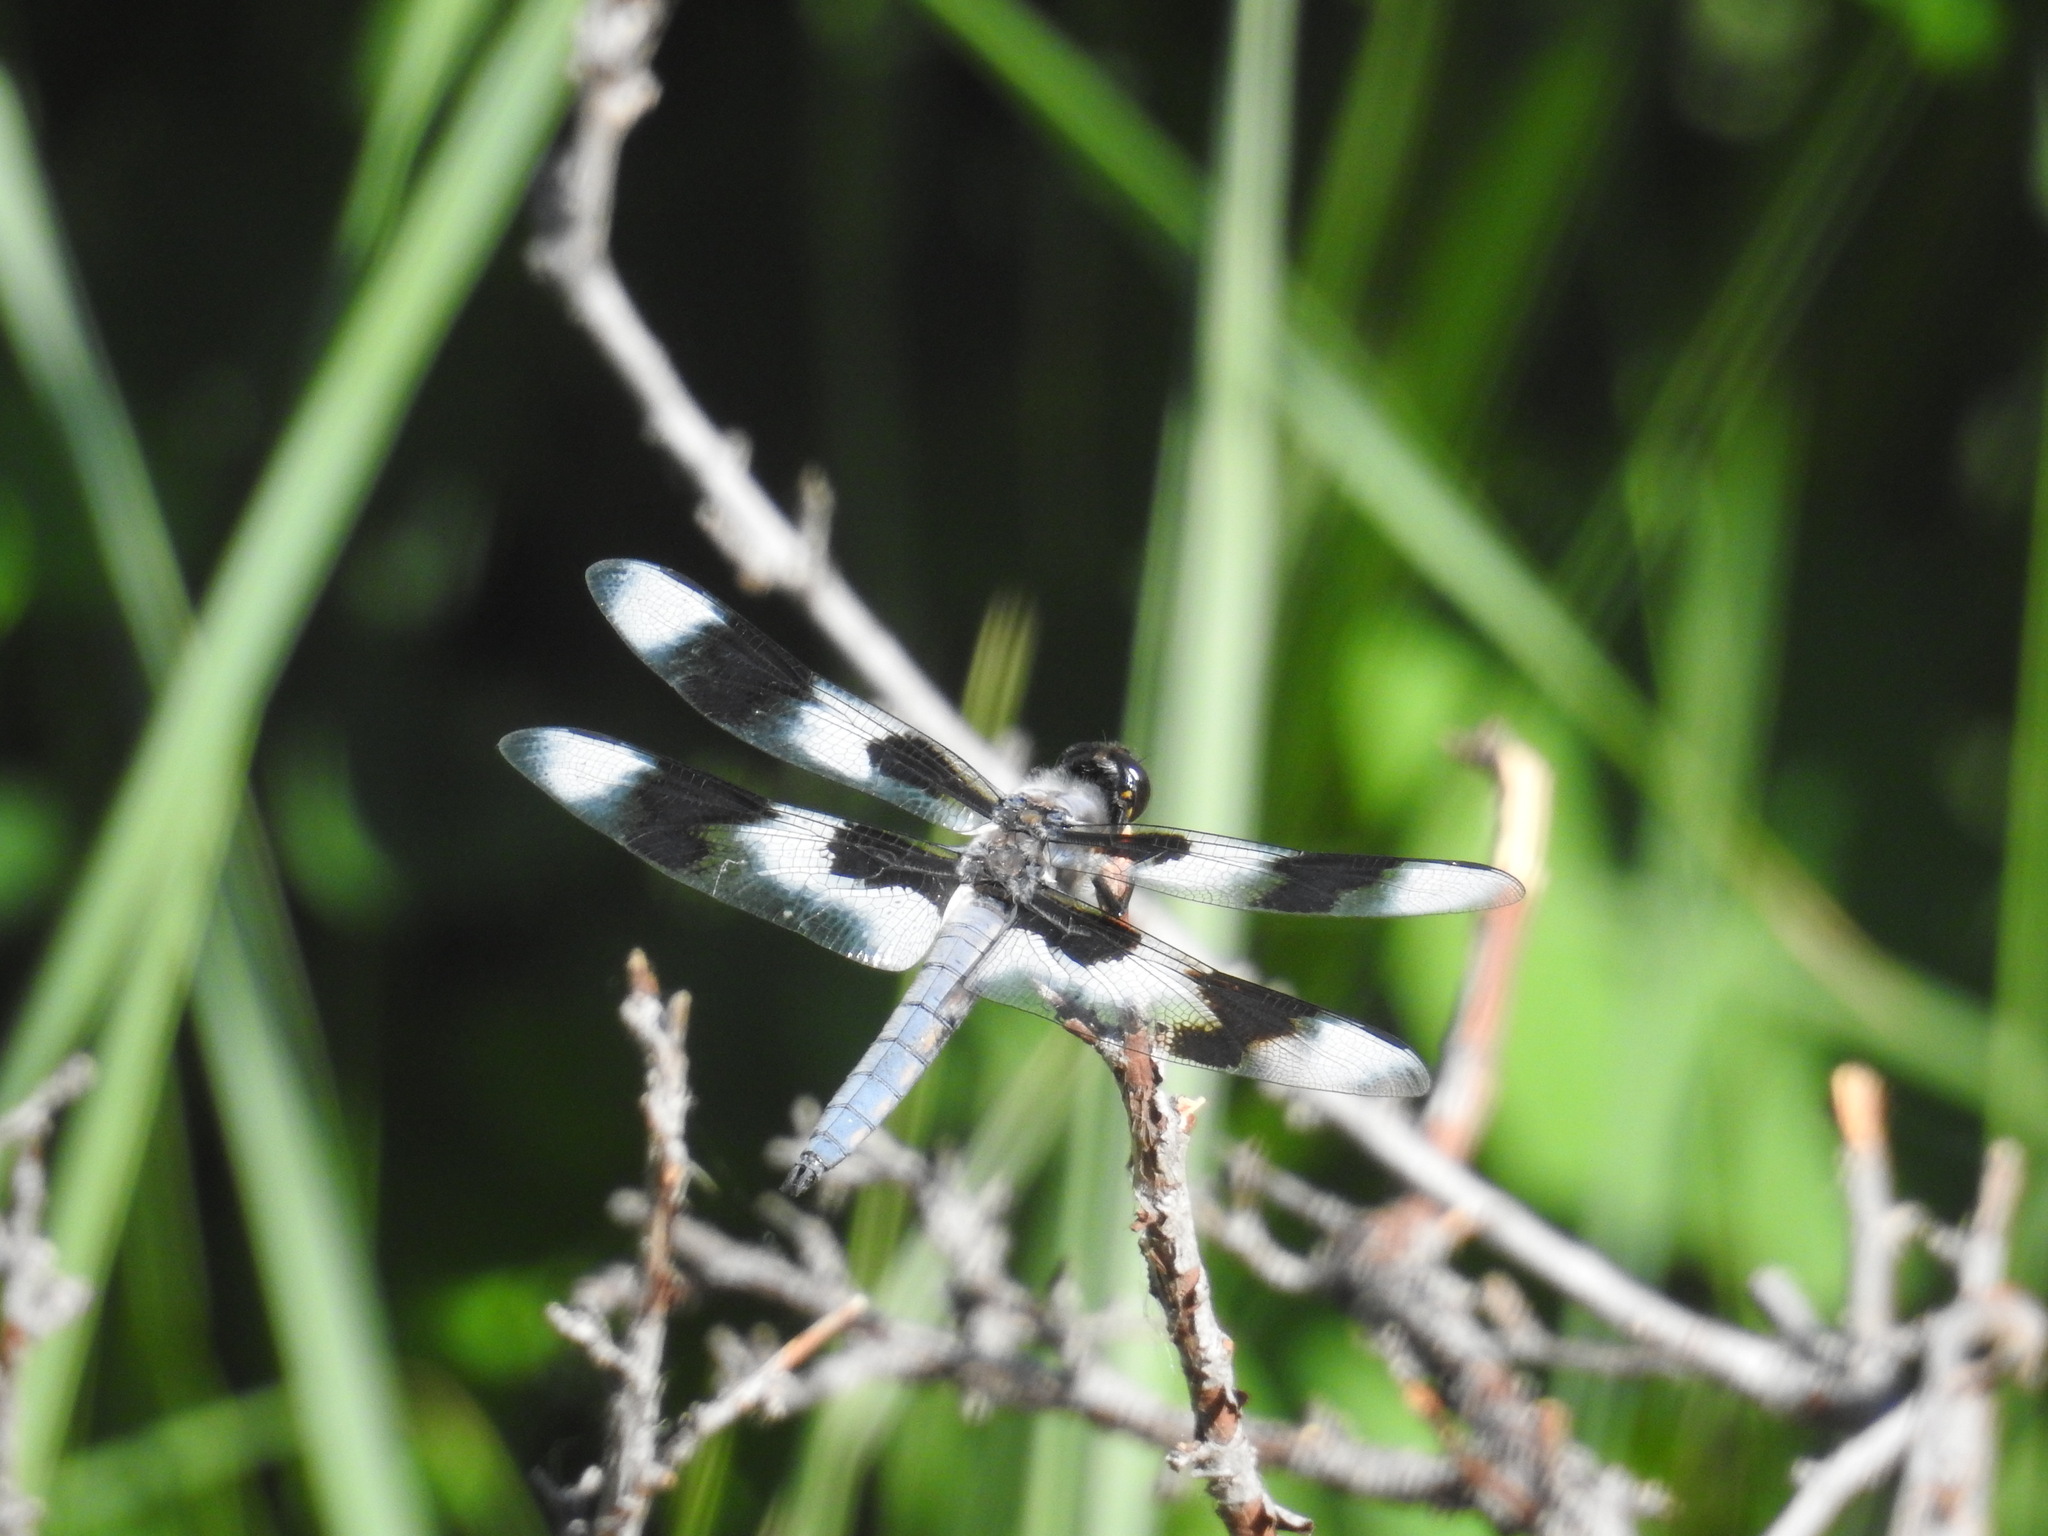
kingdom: Animalia
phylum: Arthropoda
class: Insecta
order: Odonata
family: Libellulidae
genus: Libellula
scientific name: Libellula forensis
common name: Eight-spotted skimmer
